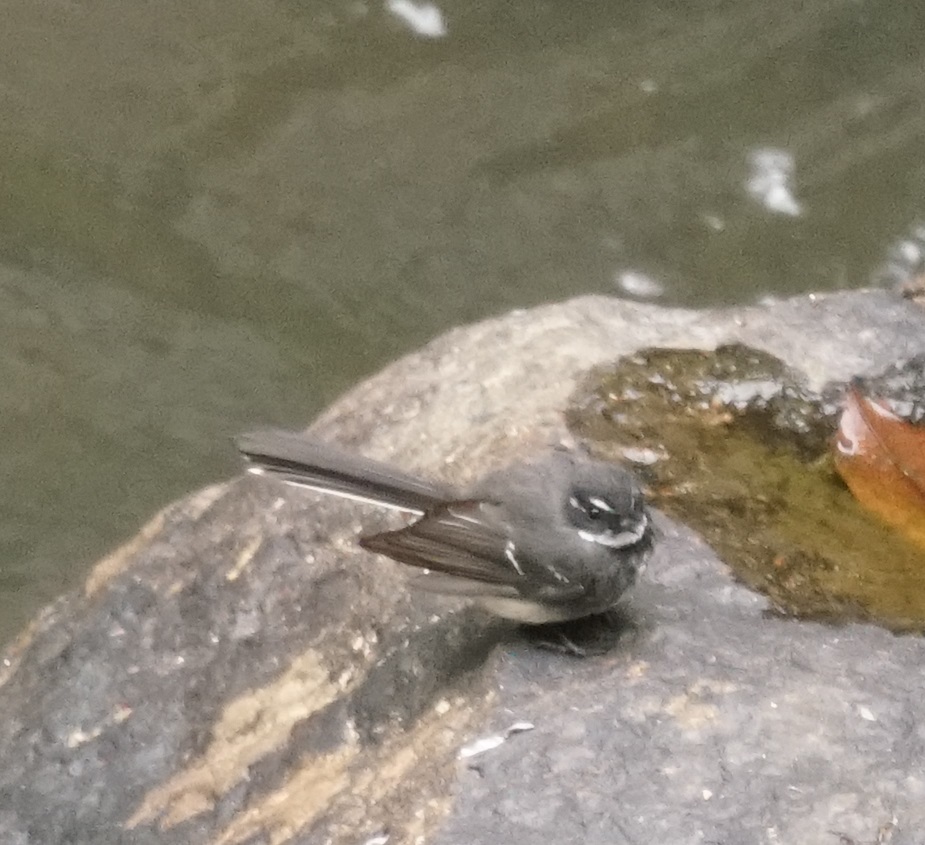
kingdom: Animalia
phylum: Chordata
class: Aves
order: Passeriformes
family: Rhipiduridae
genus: Rhipidura
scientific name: Rhipidura albiscapa
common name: Grey fantail
